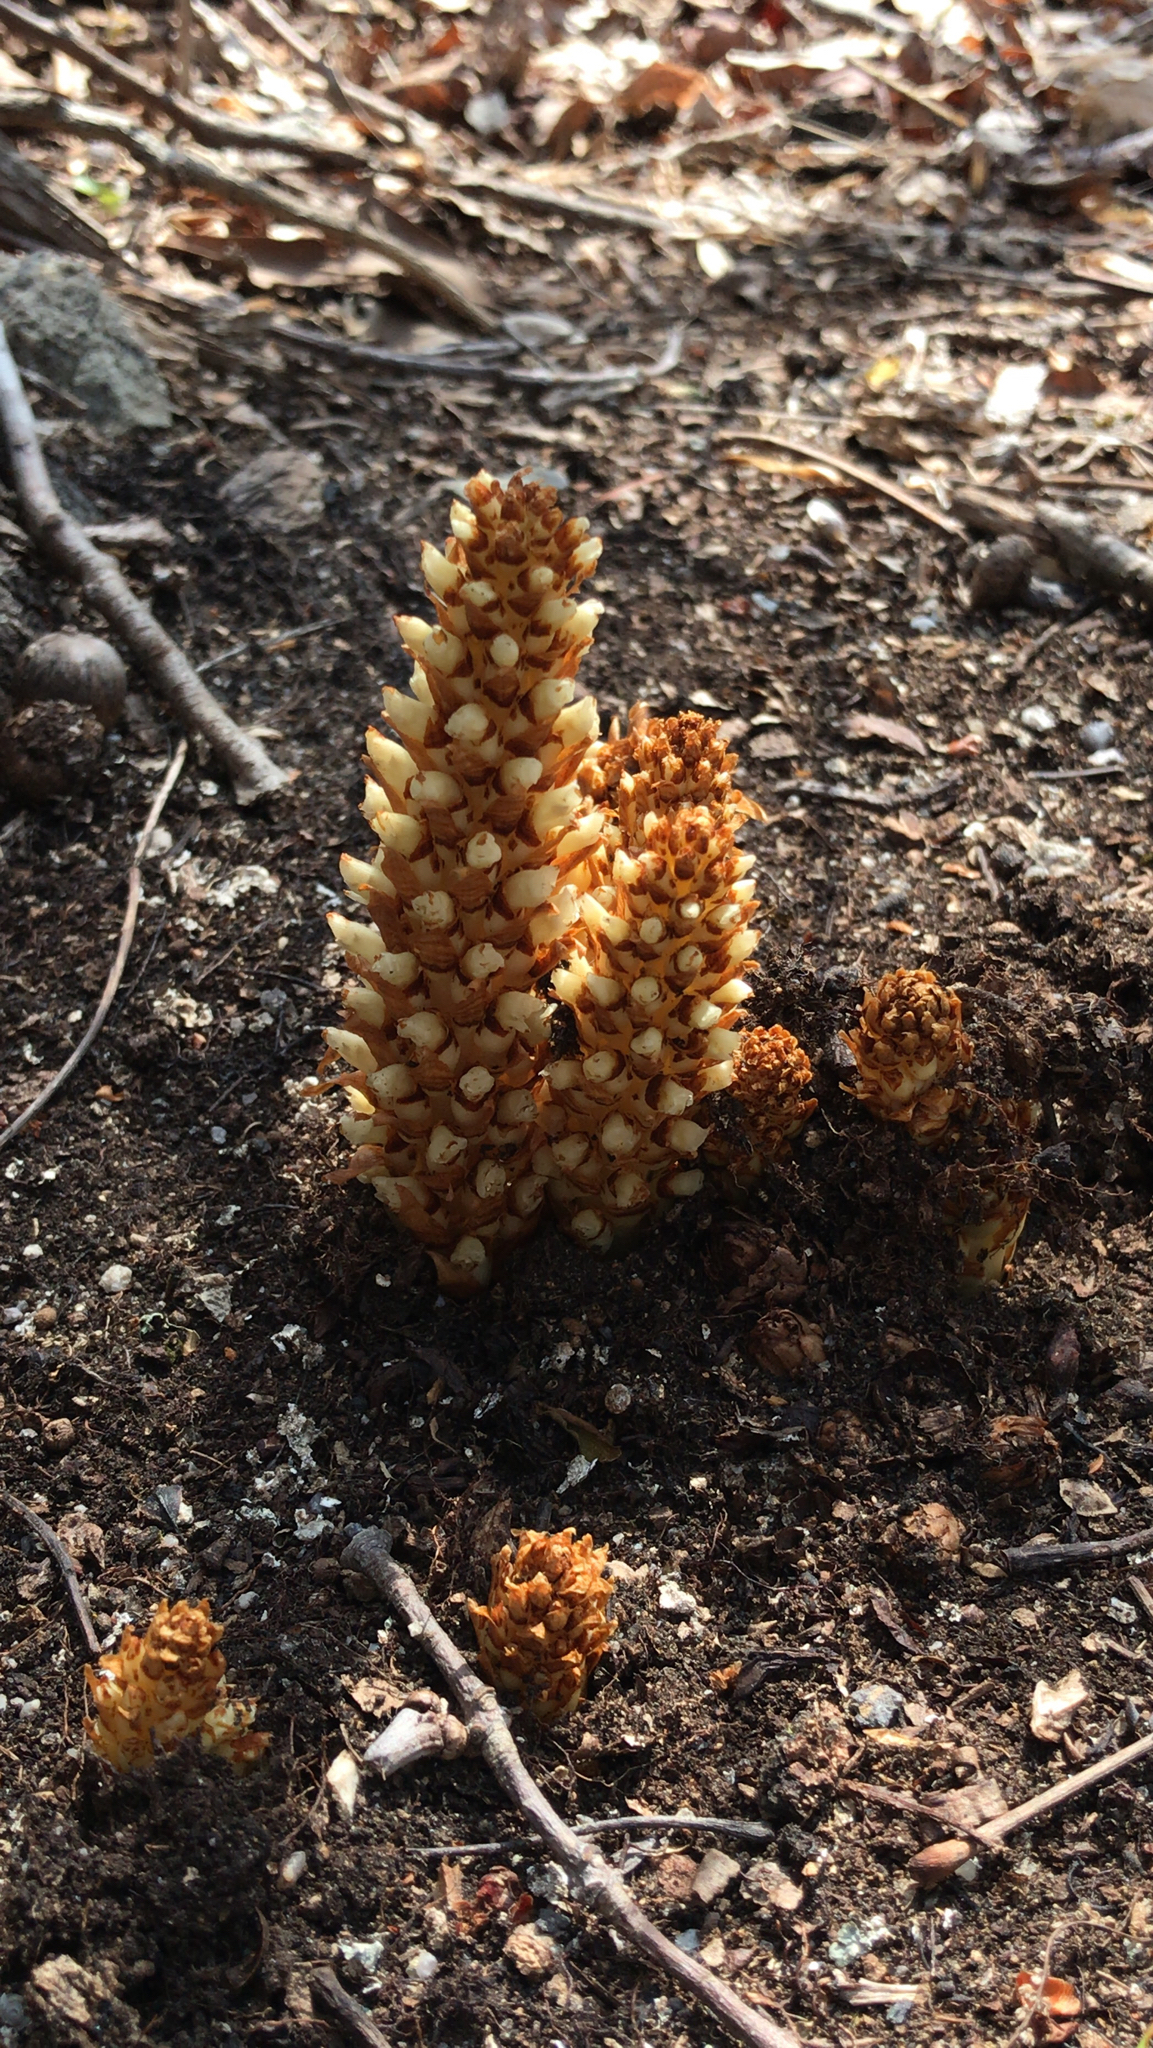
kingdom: Plantae
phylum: Tracheophyta
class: Magnoliopsida
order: Lamiales
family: Orobanchaceae
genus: Conopholis
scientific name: Conopholis americana
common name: American cancer-root
